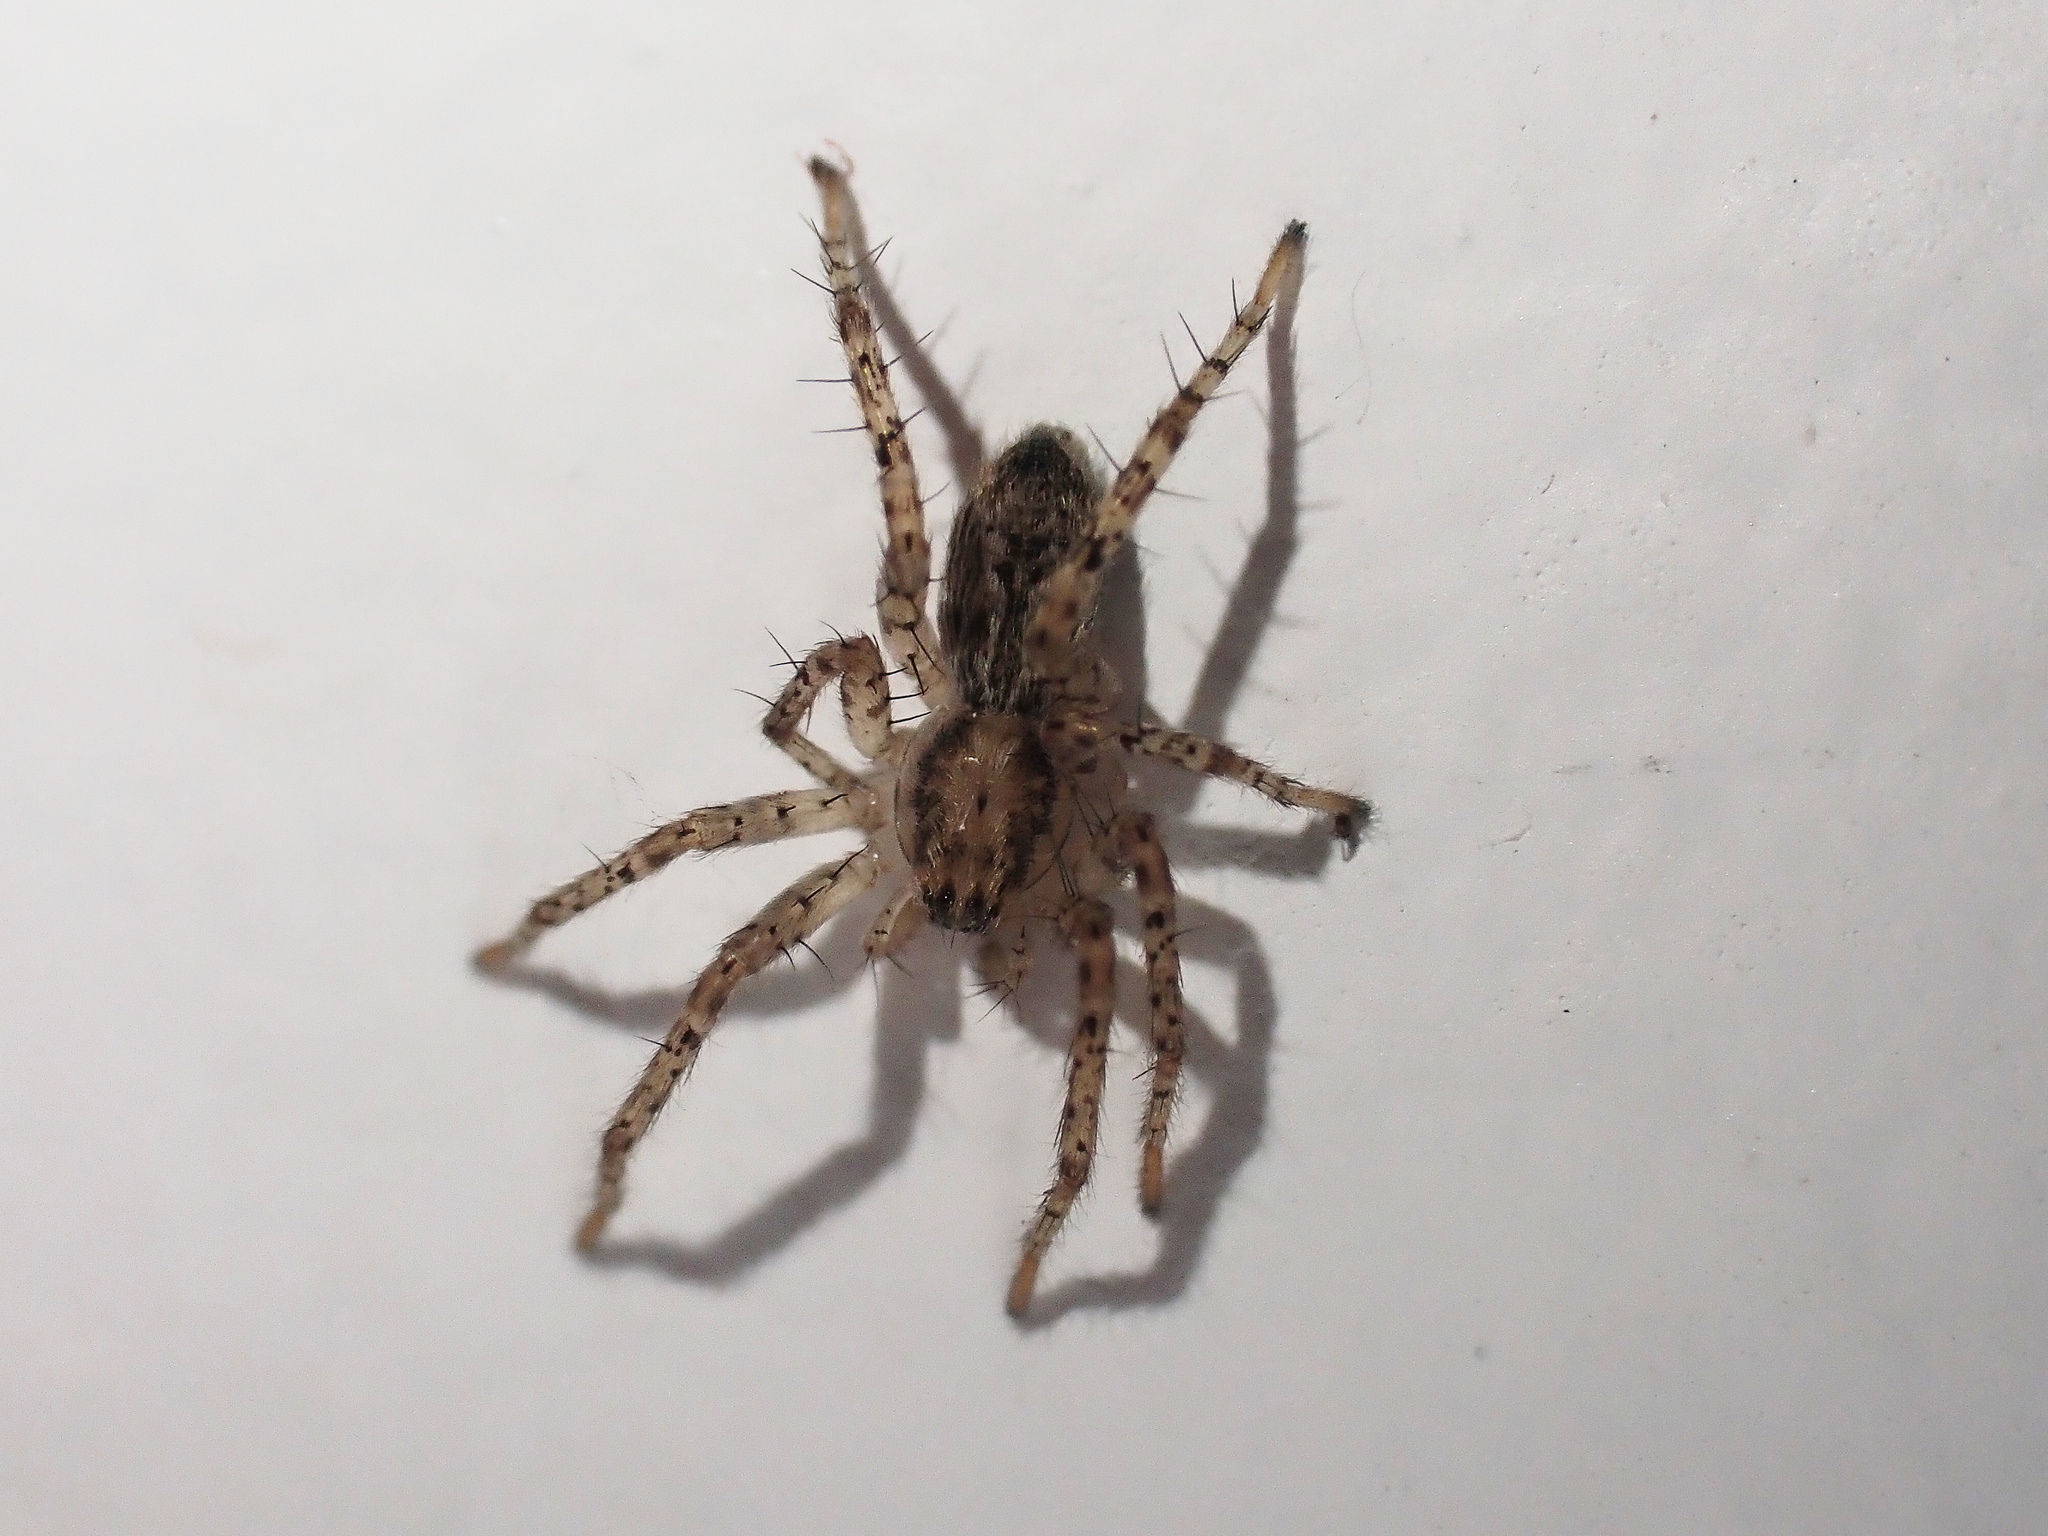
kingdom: Animalia
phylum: Arthropoda
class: Arachnida
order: Araneae
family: Anyphaenidae
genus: Anyphaena
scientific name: Anyphaena accentuata
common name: Buzzing spider
